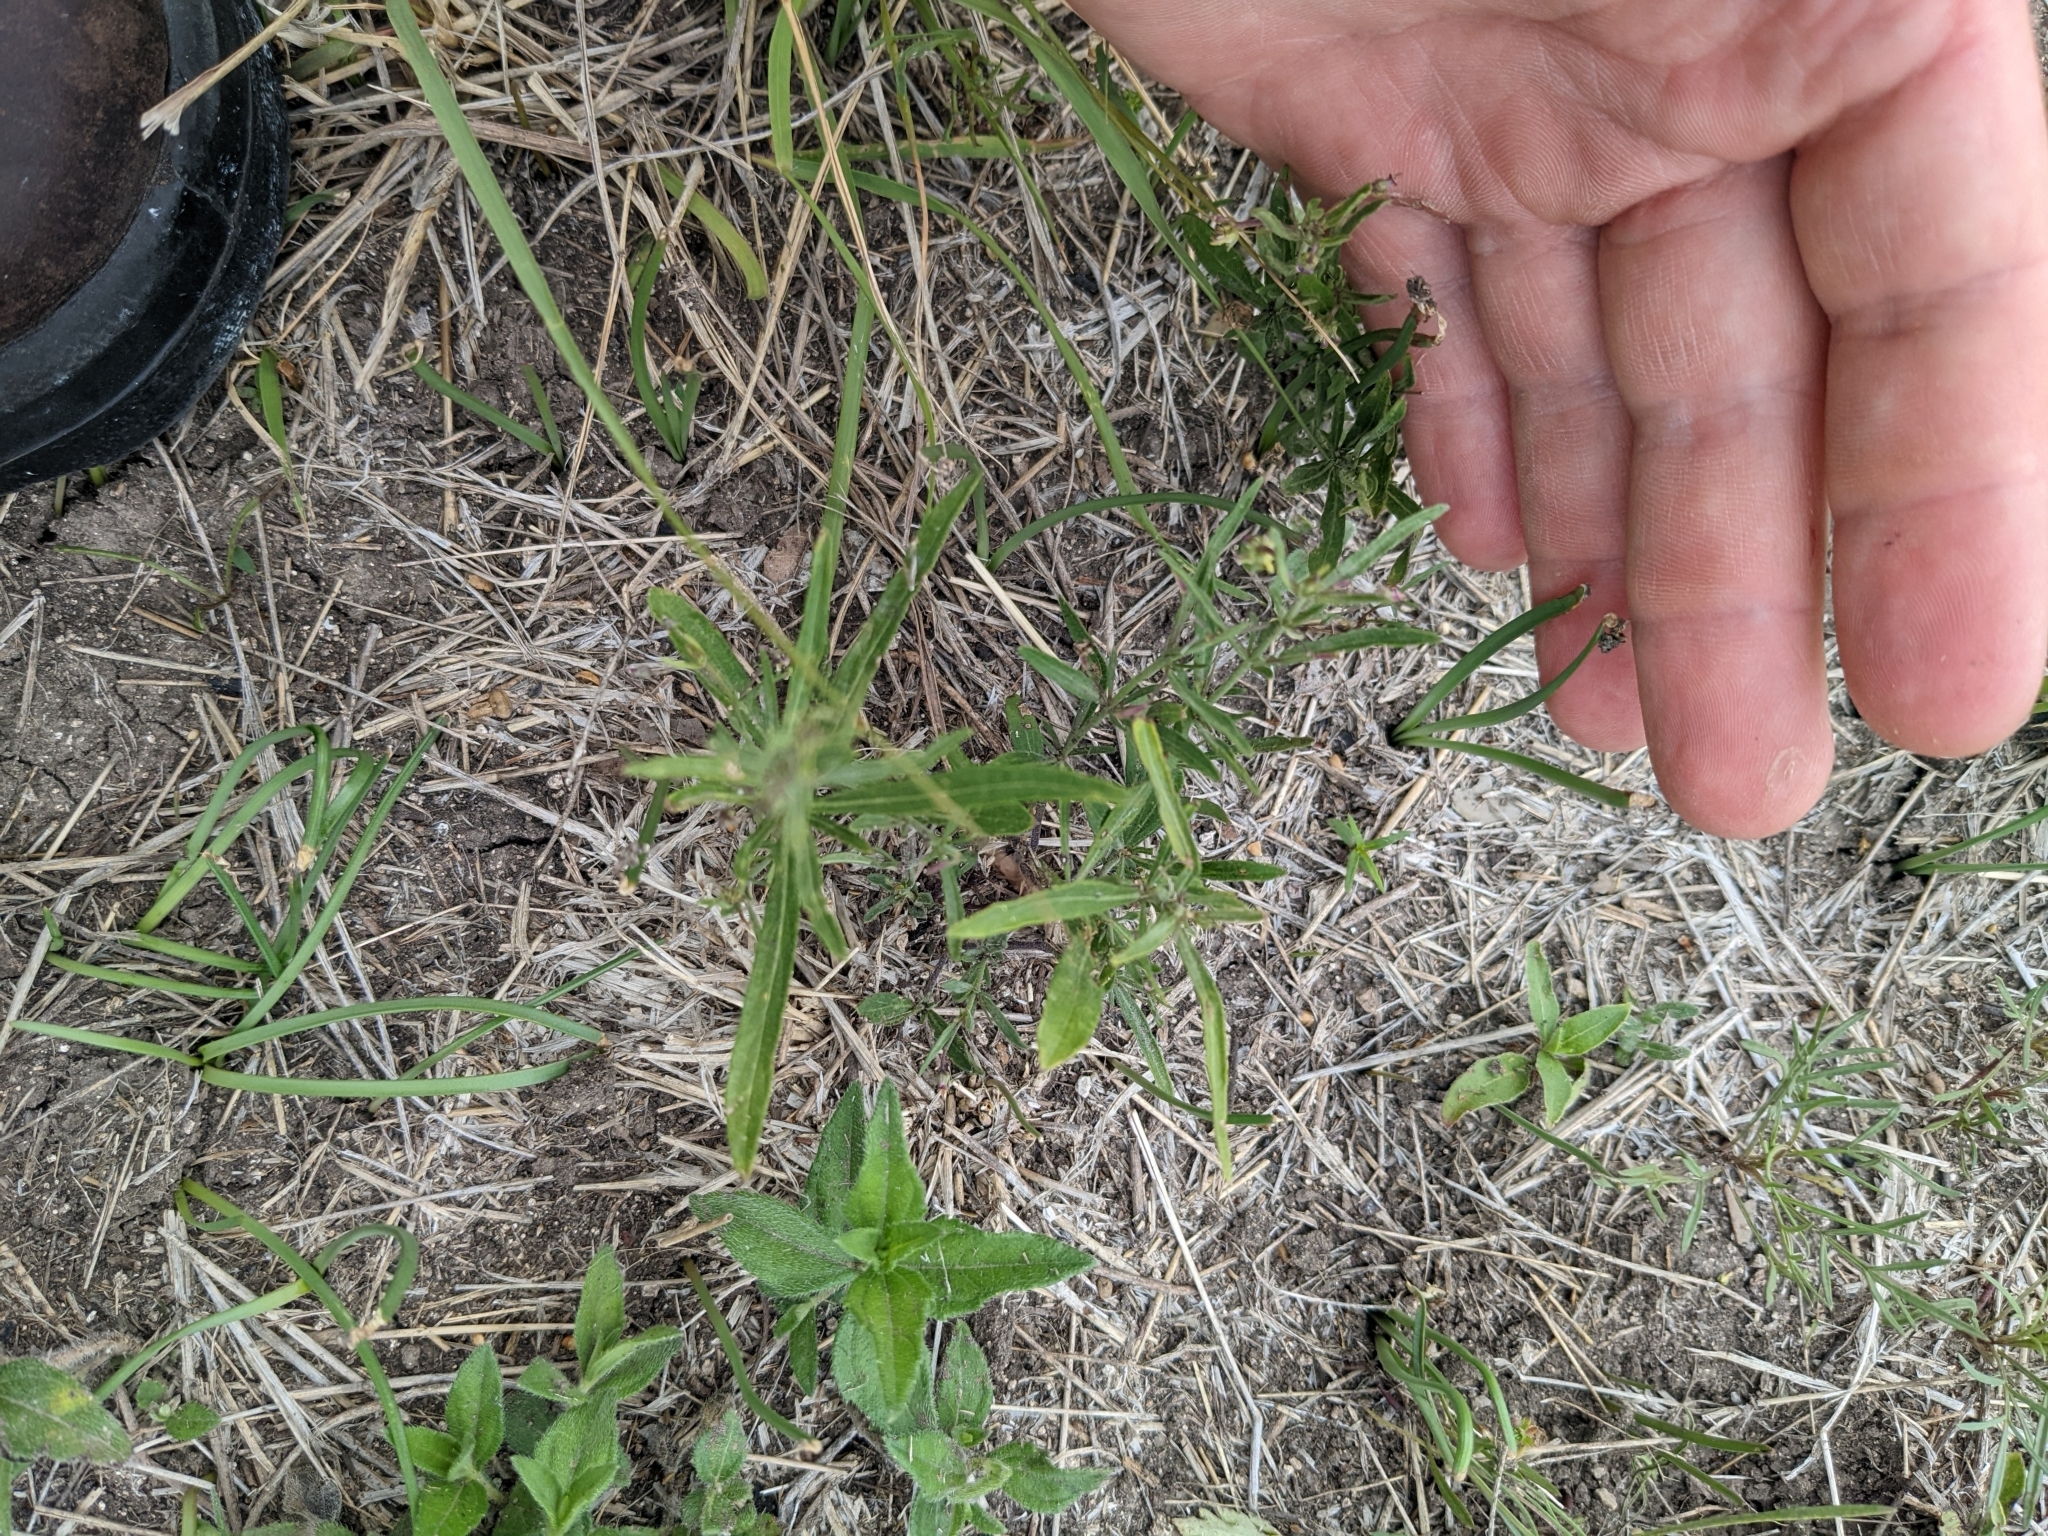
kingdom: Plantae
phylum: Tracheophyta
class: Magnoliopsida
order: Malpighiales
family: Violaceae
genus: Pombalia
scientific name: Pombalia verticillata
